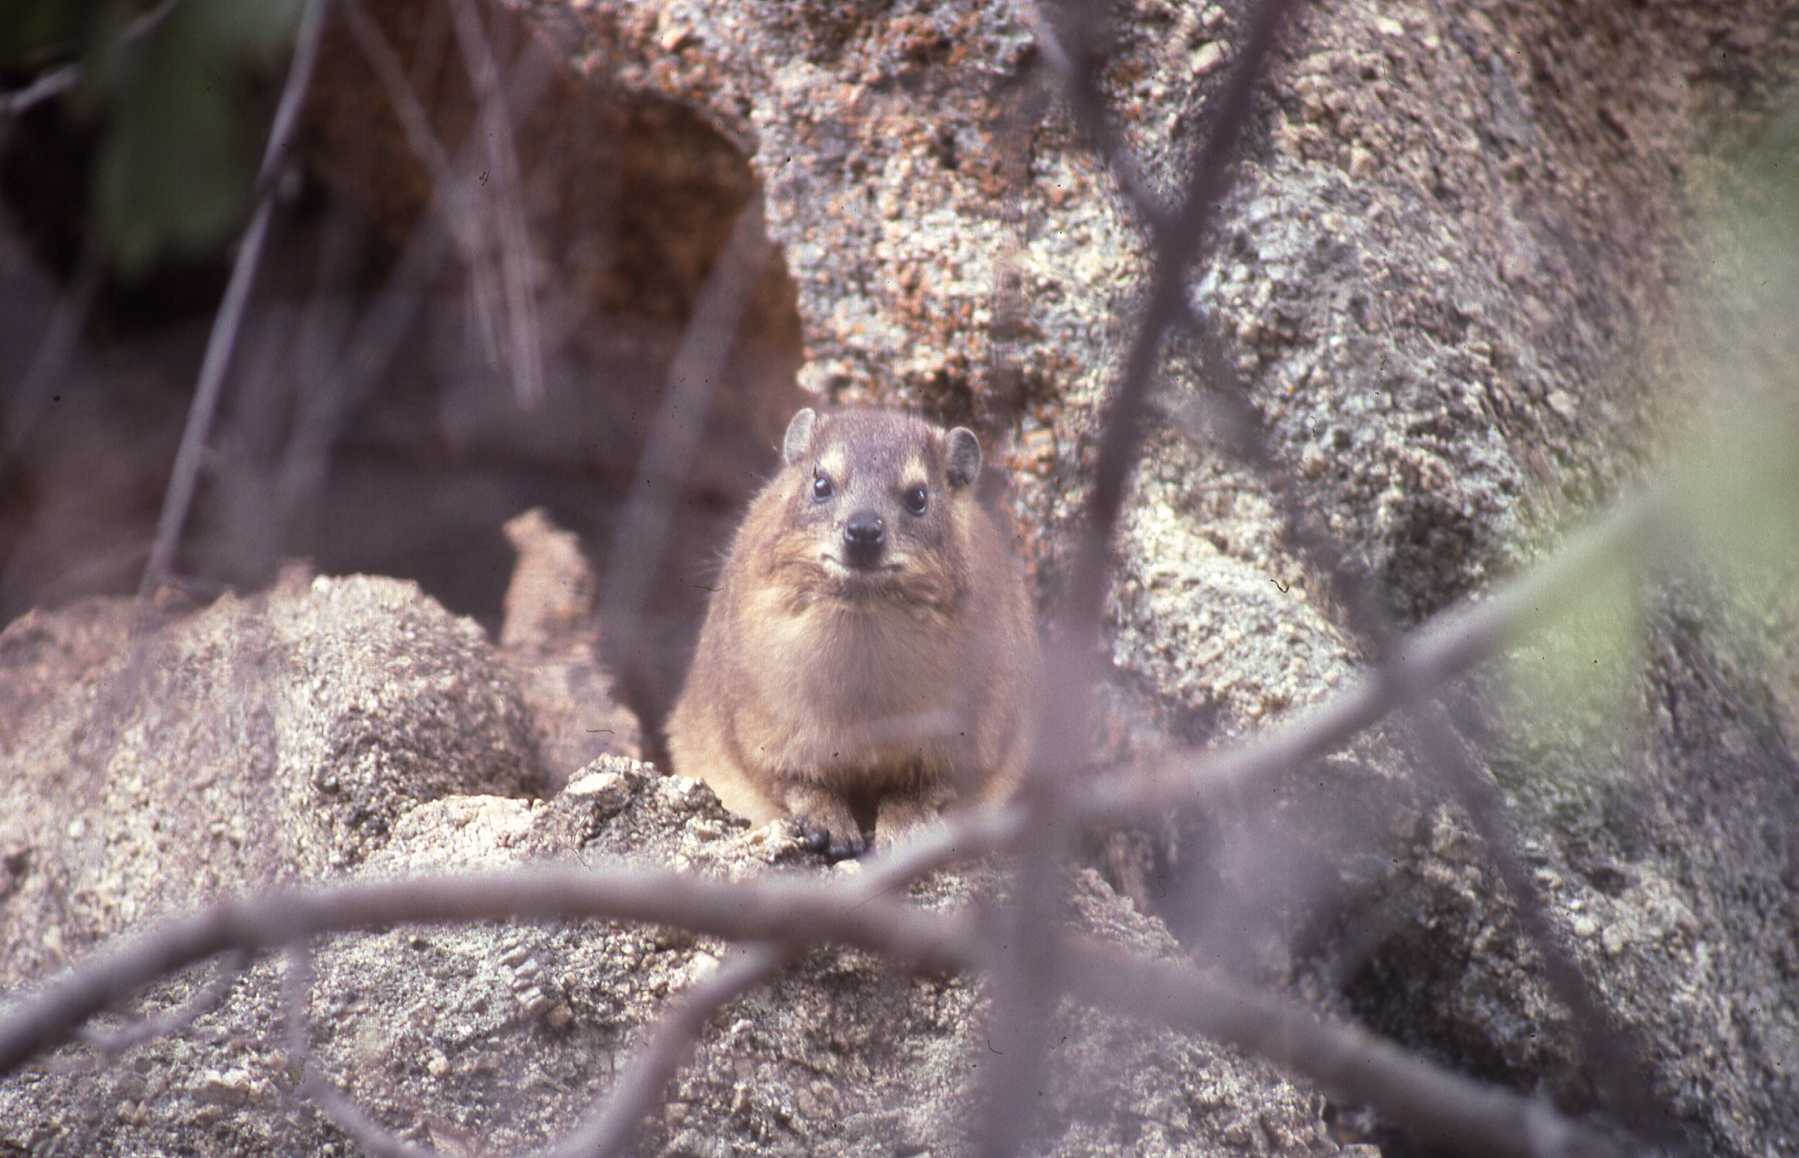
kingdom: Animalia
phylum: Chordata
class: Mammalia
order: Hyracoidea
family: Procaviidae
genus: Procavia
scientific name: Procavia capensis
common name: Rock hyrax
